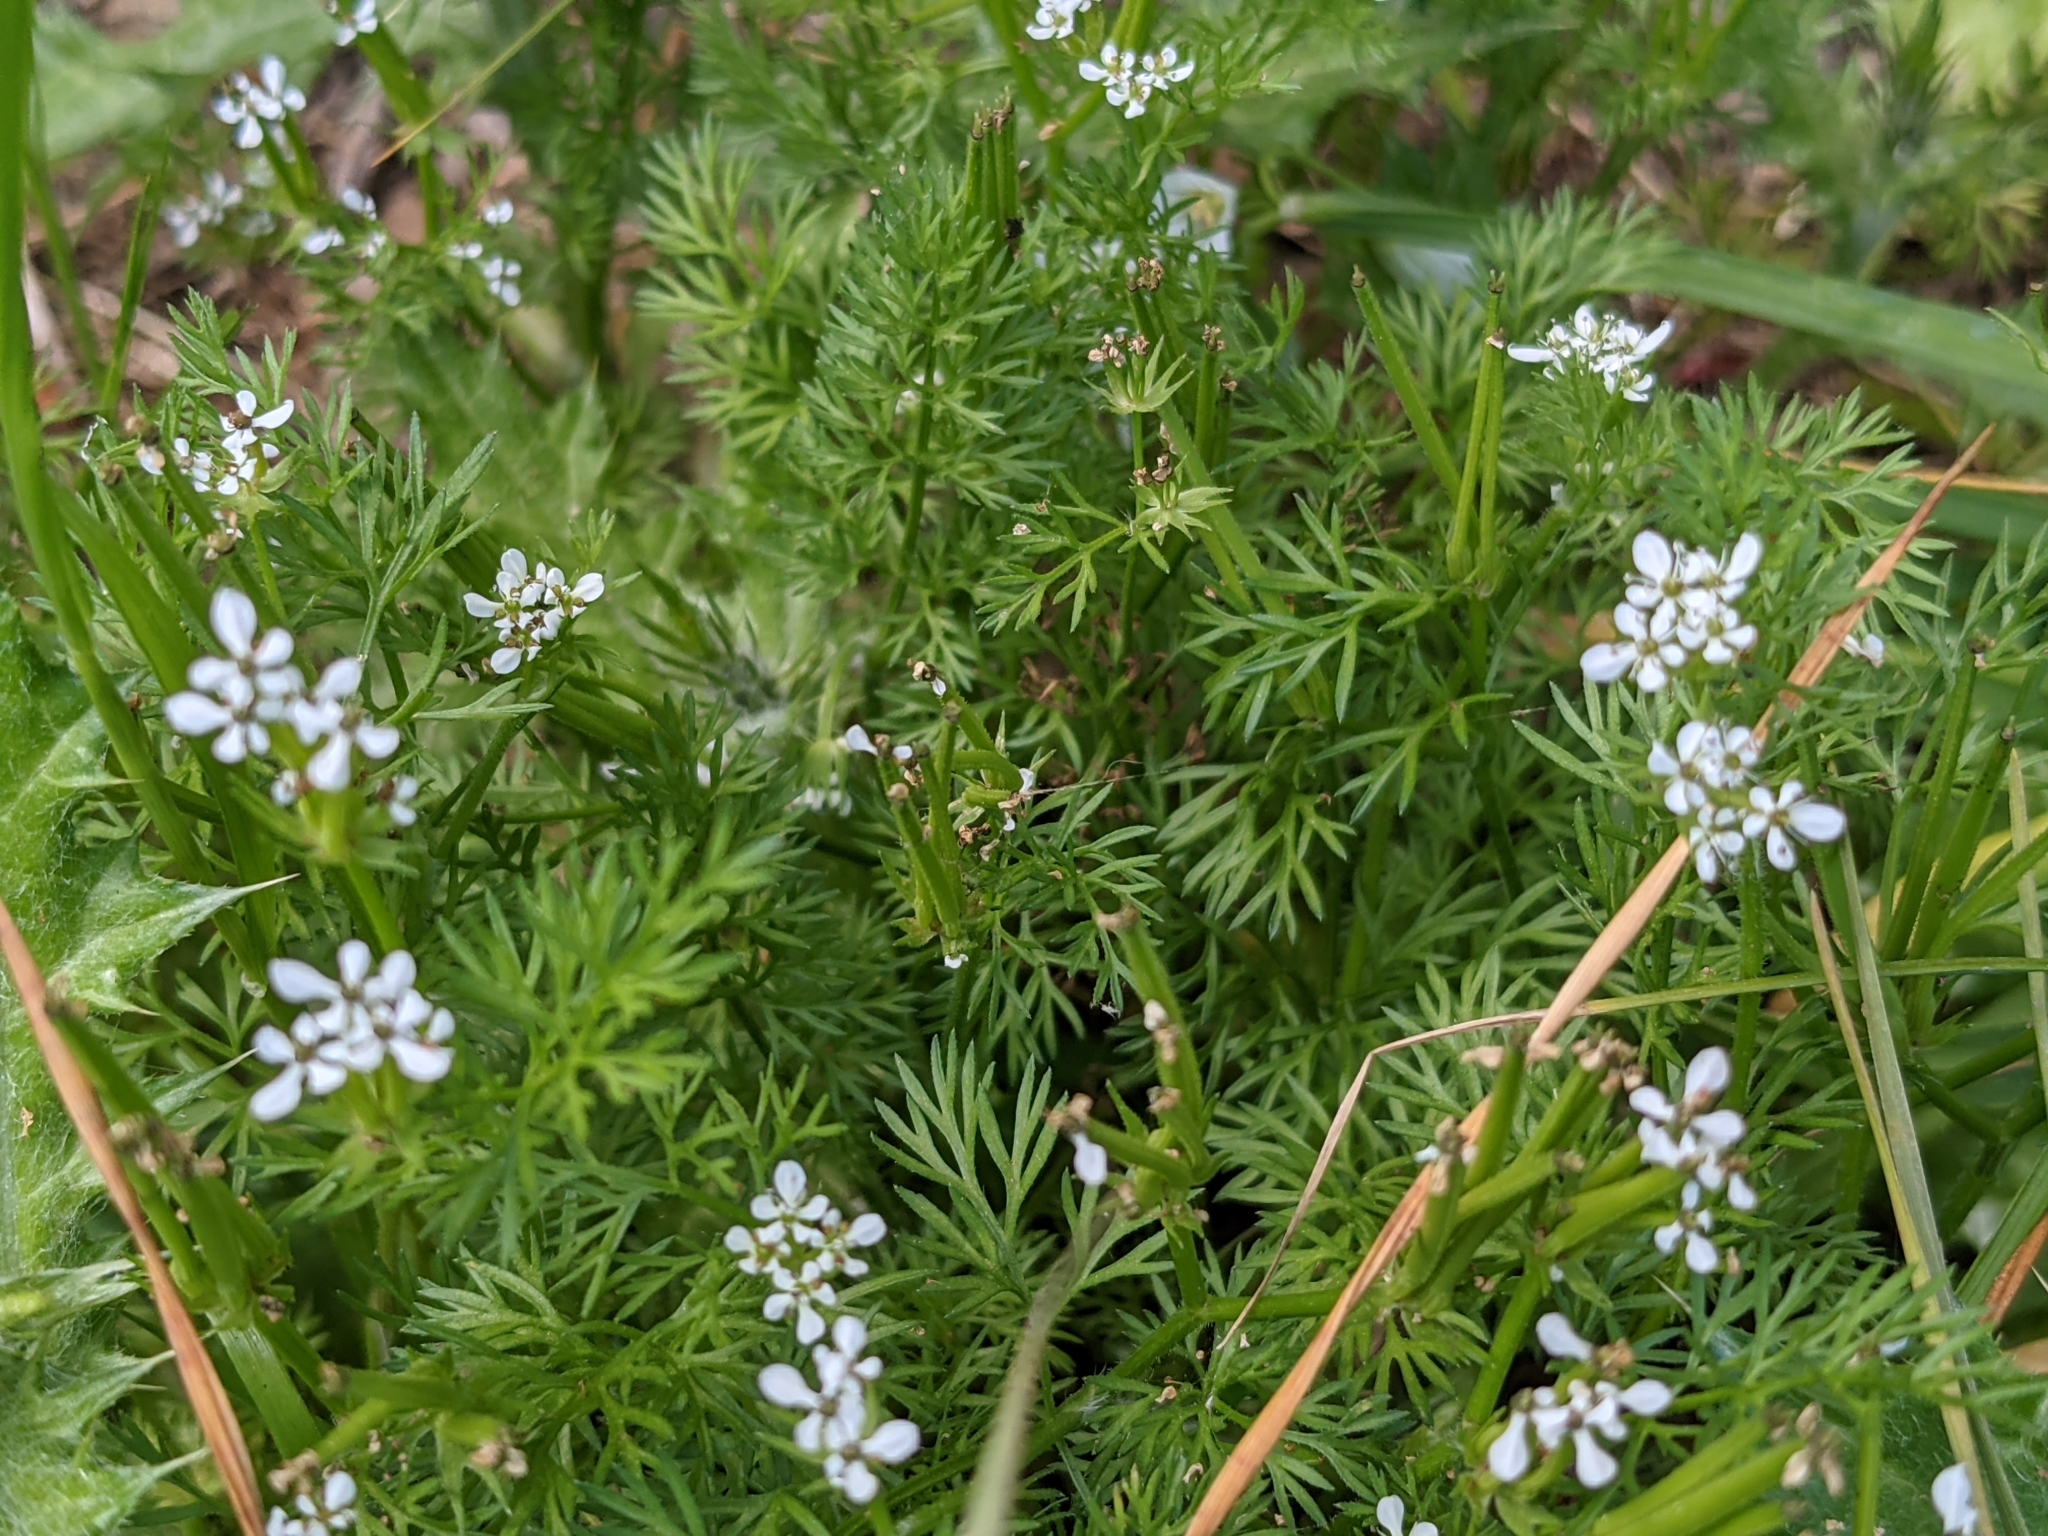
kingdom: Plantae
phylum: Tracheophyta
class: Magnoliopsida
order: Apiales
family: Apiaceae
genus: Scandix
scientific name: Scandix pecten-veneris
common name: Shepherd's-needle
